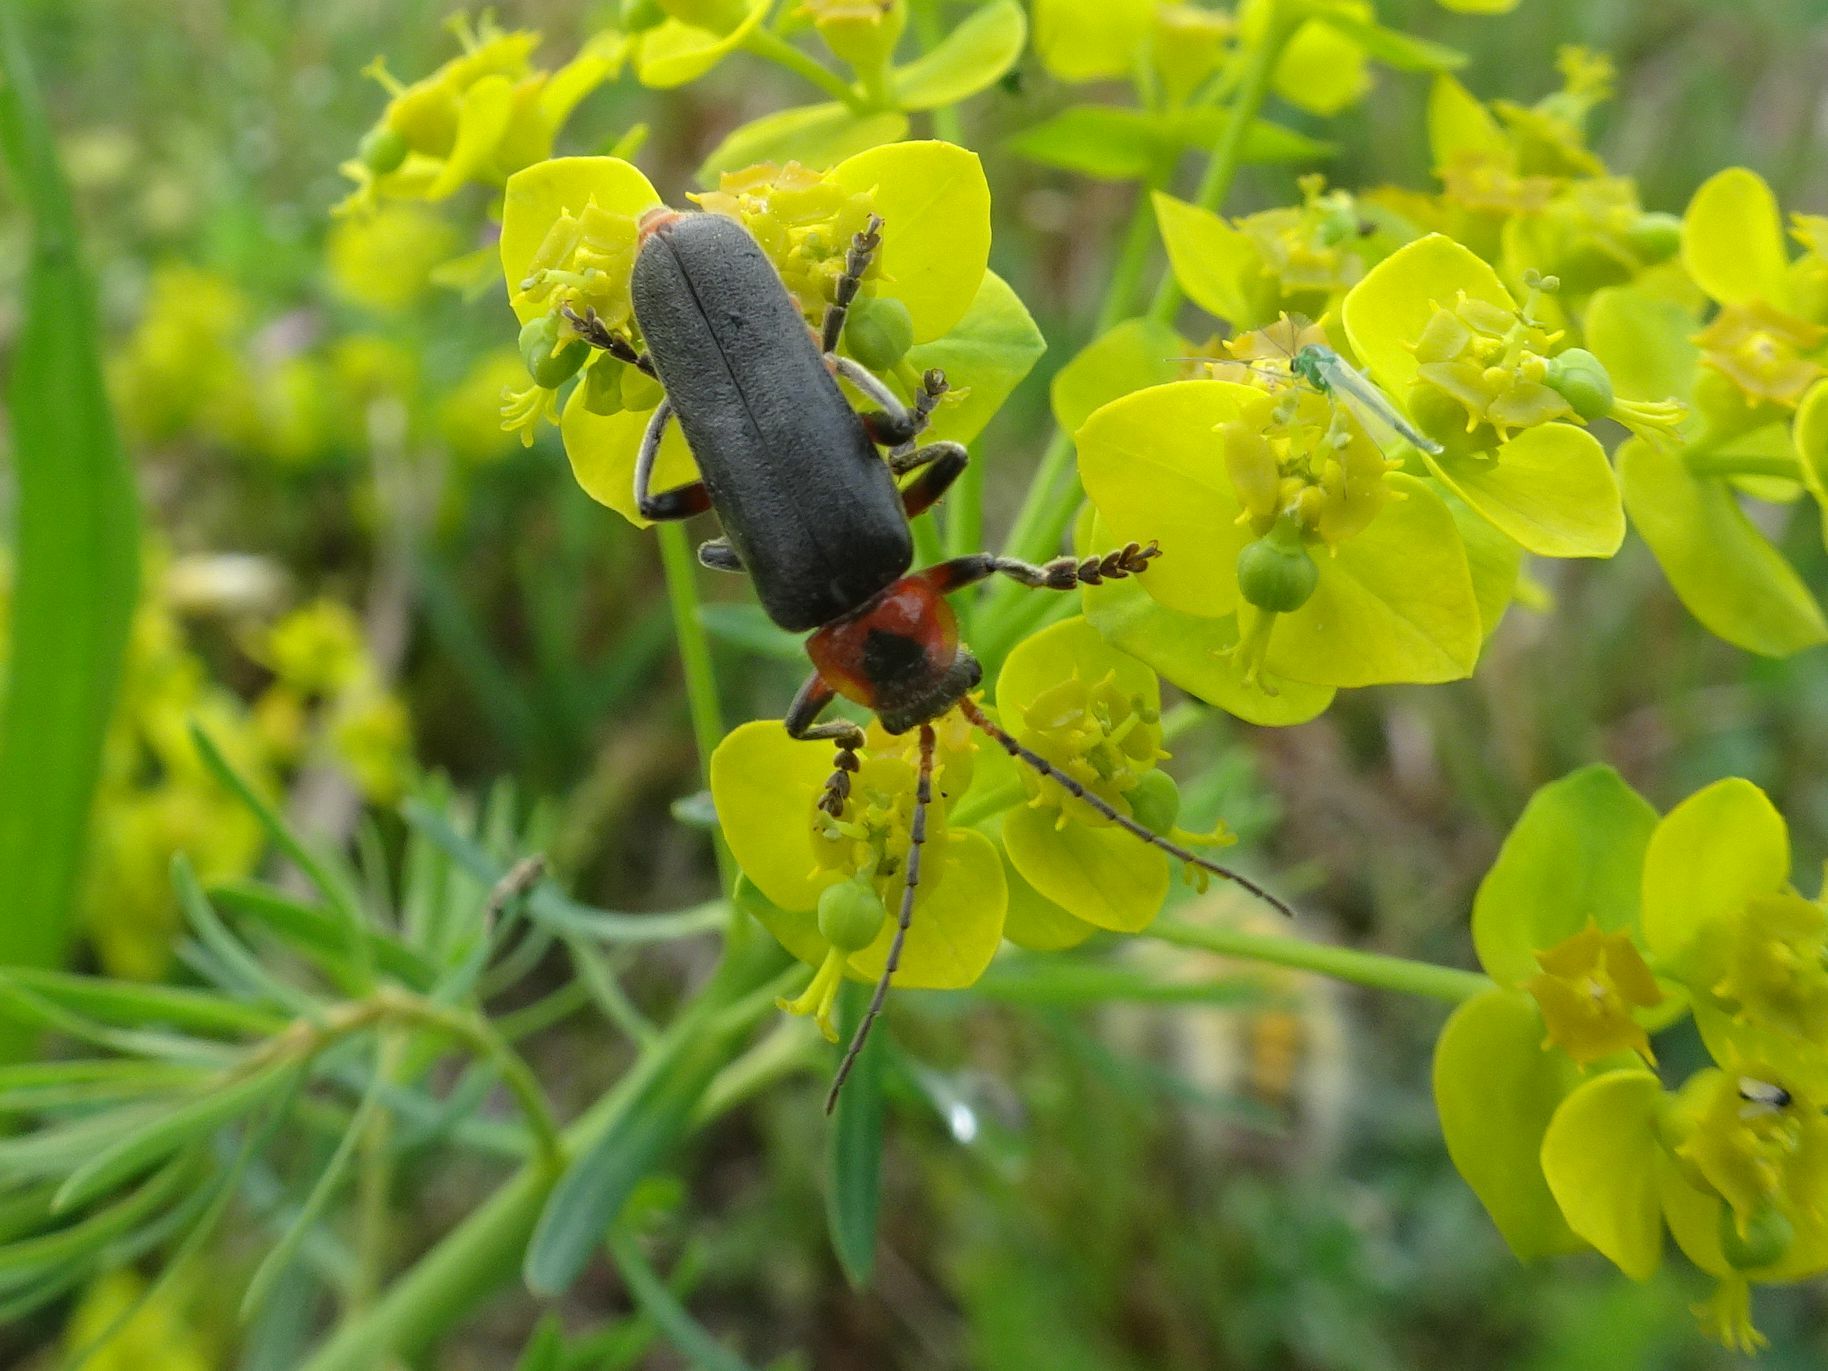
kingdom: Animalia
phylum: Arthropoda
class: Insecta
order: Coleoptera
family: Cantharidae
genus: Cantharis
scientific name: Cantharis rustica
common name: Soldier beetle
